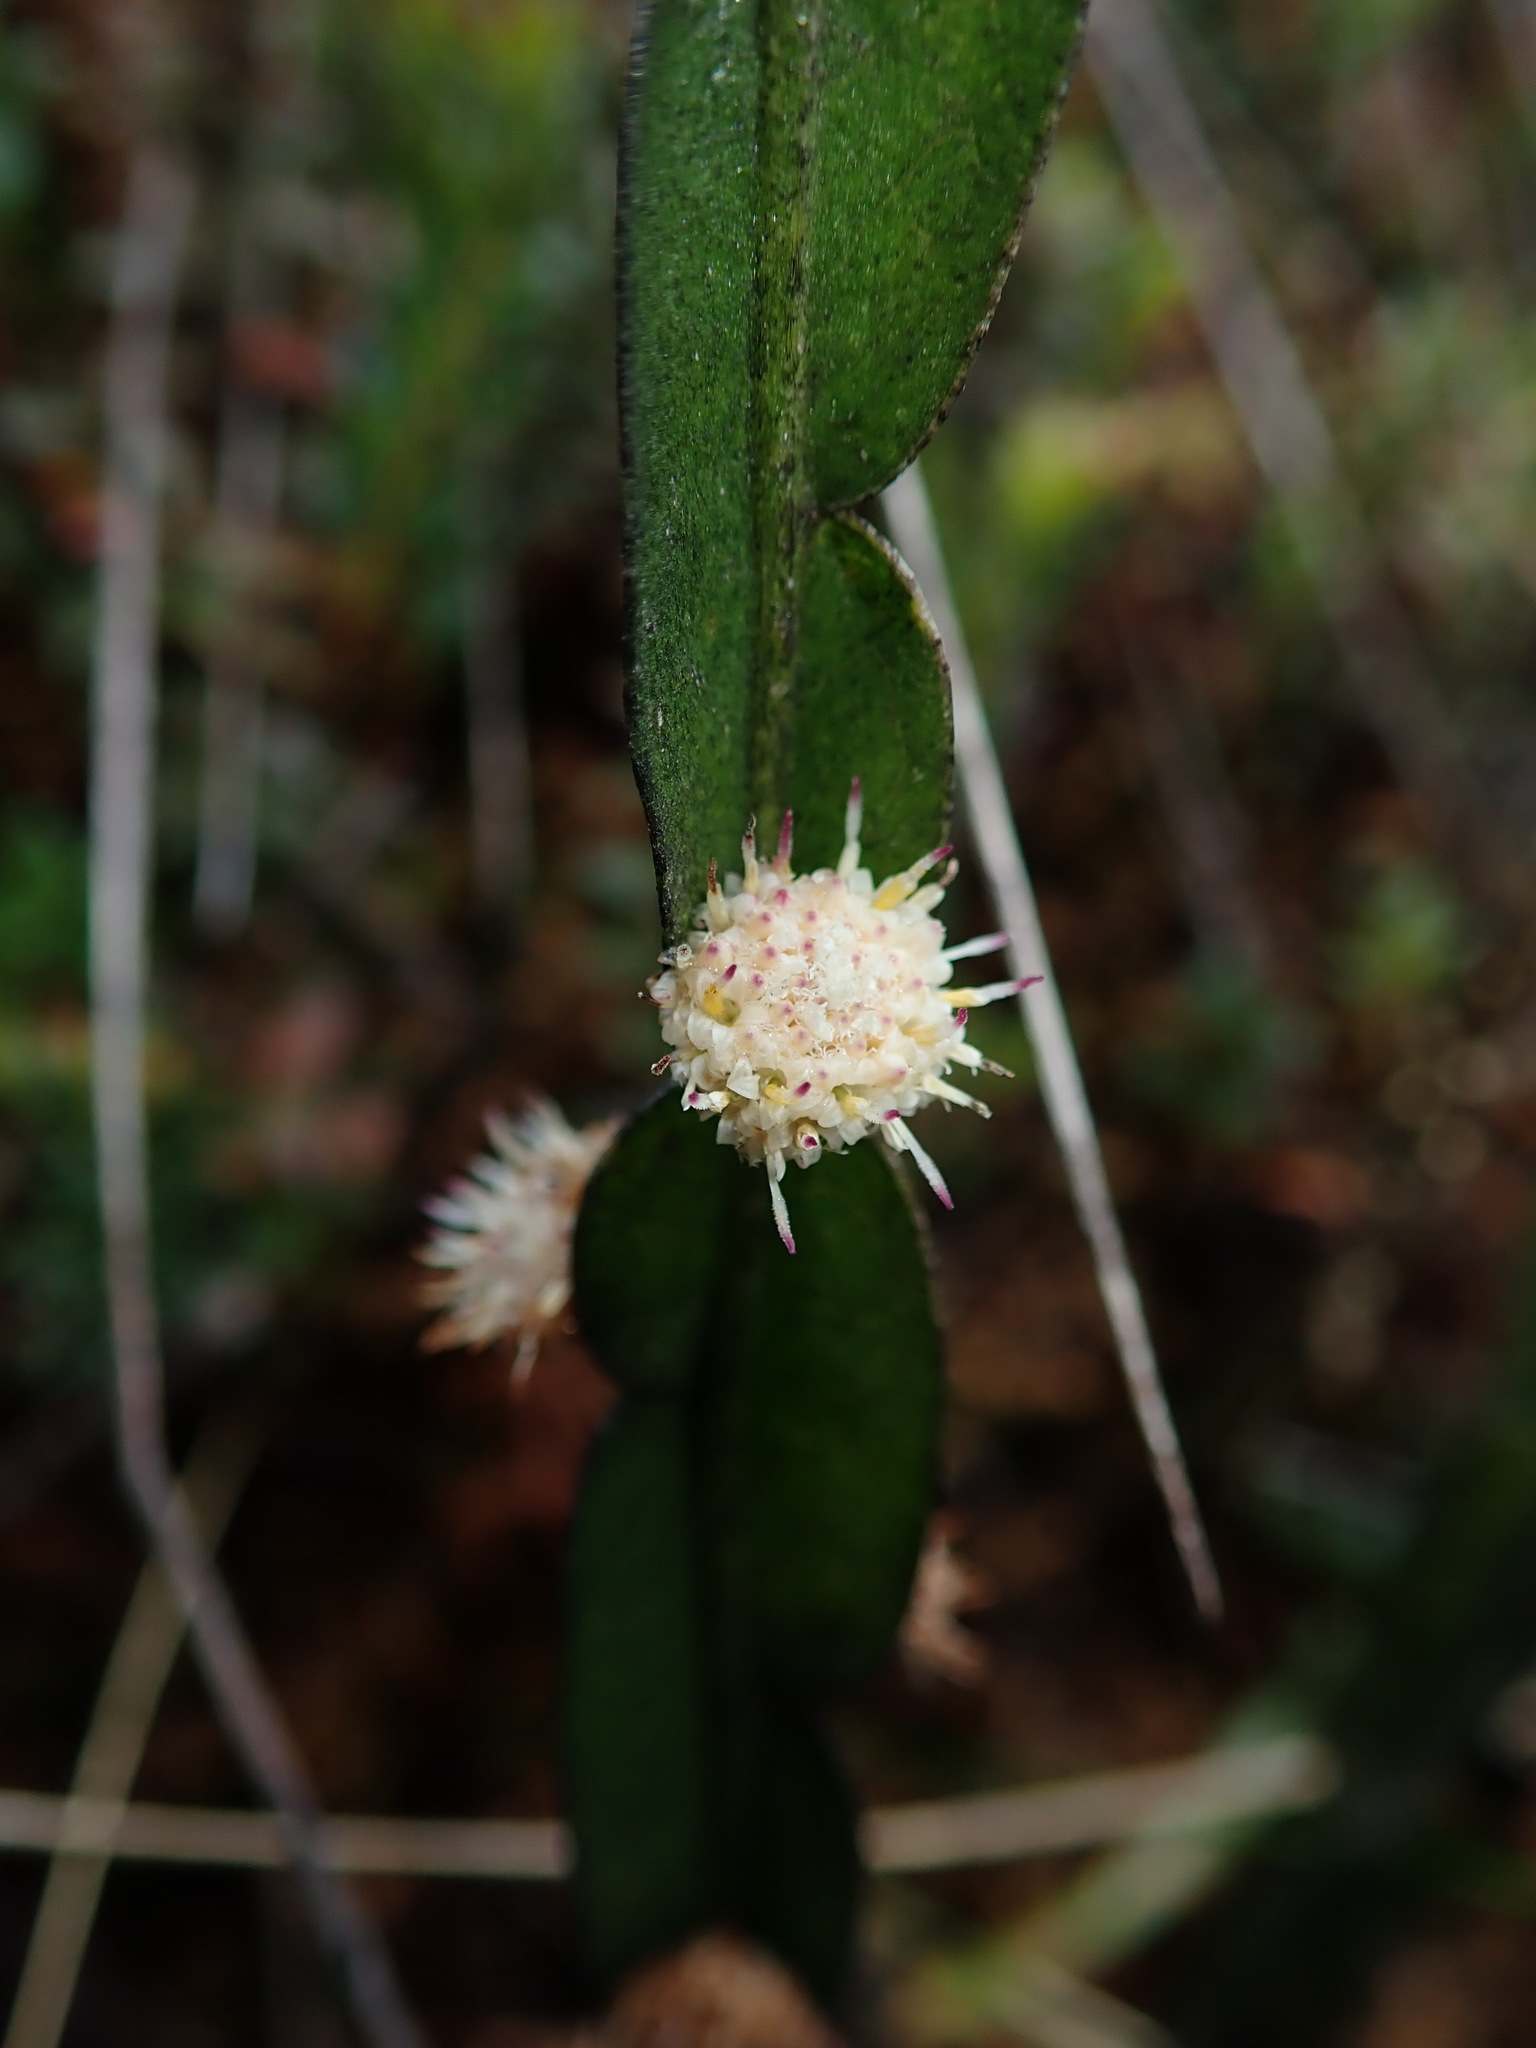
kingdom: Plantae
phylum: Tracheophyta
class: Magnoliopsida
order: Asterales
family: Asteraceae
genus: Baccharis
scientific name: Baccharis genistelloides
